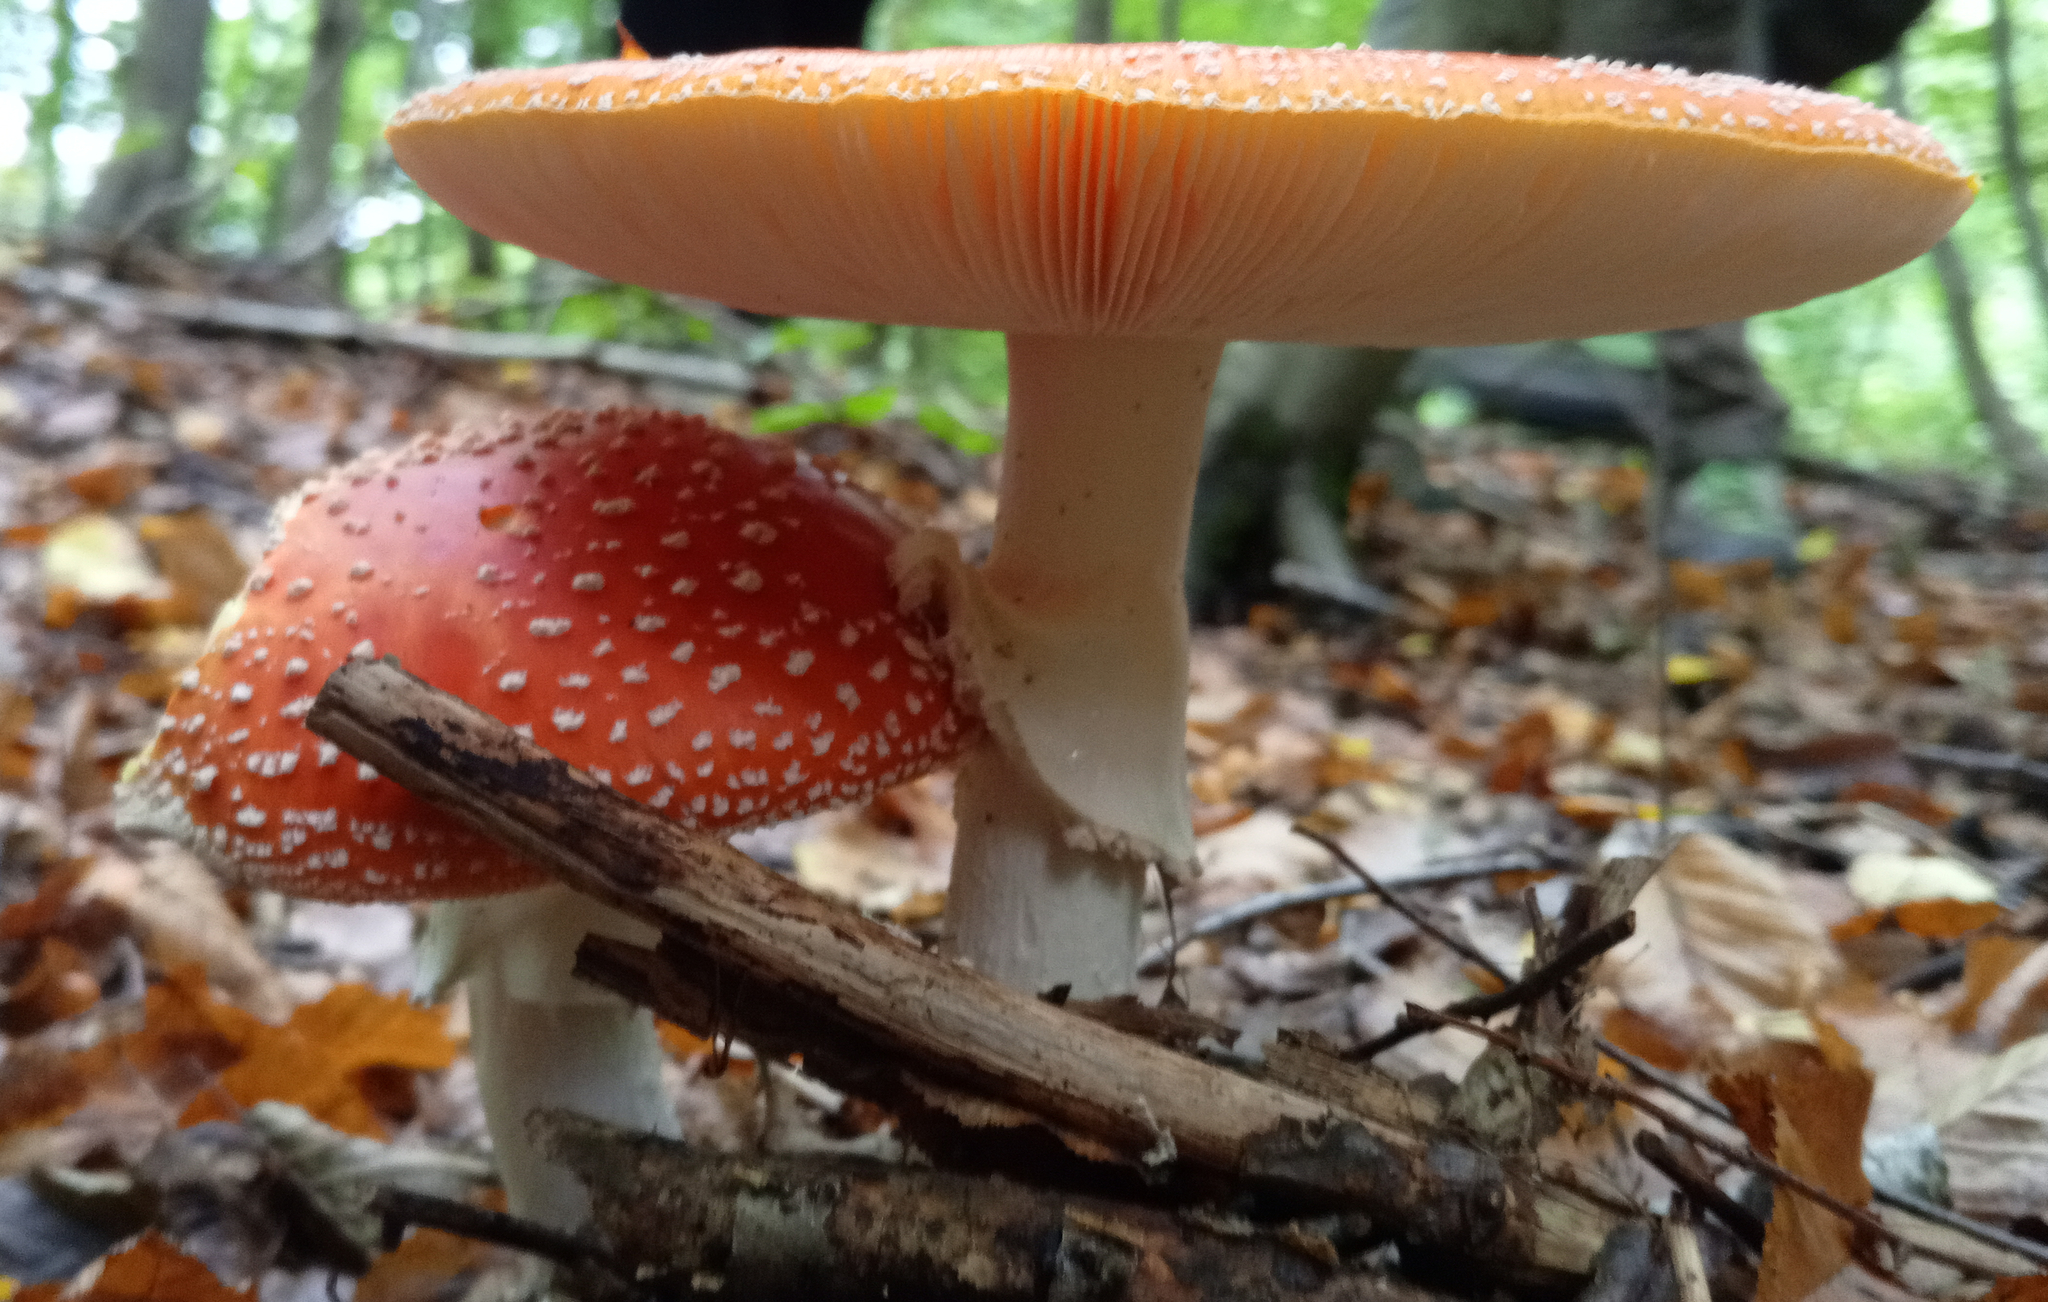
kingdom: Fungi
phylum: Basidiomycota
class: Agaricomycetes
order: Agaricales
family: Amanitaceae
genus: Amanita
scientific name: Amanita muscaria
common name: Fly agaric
